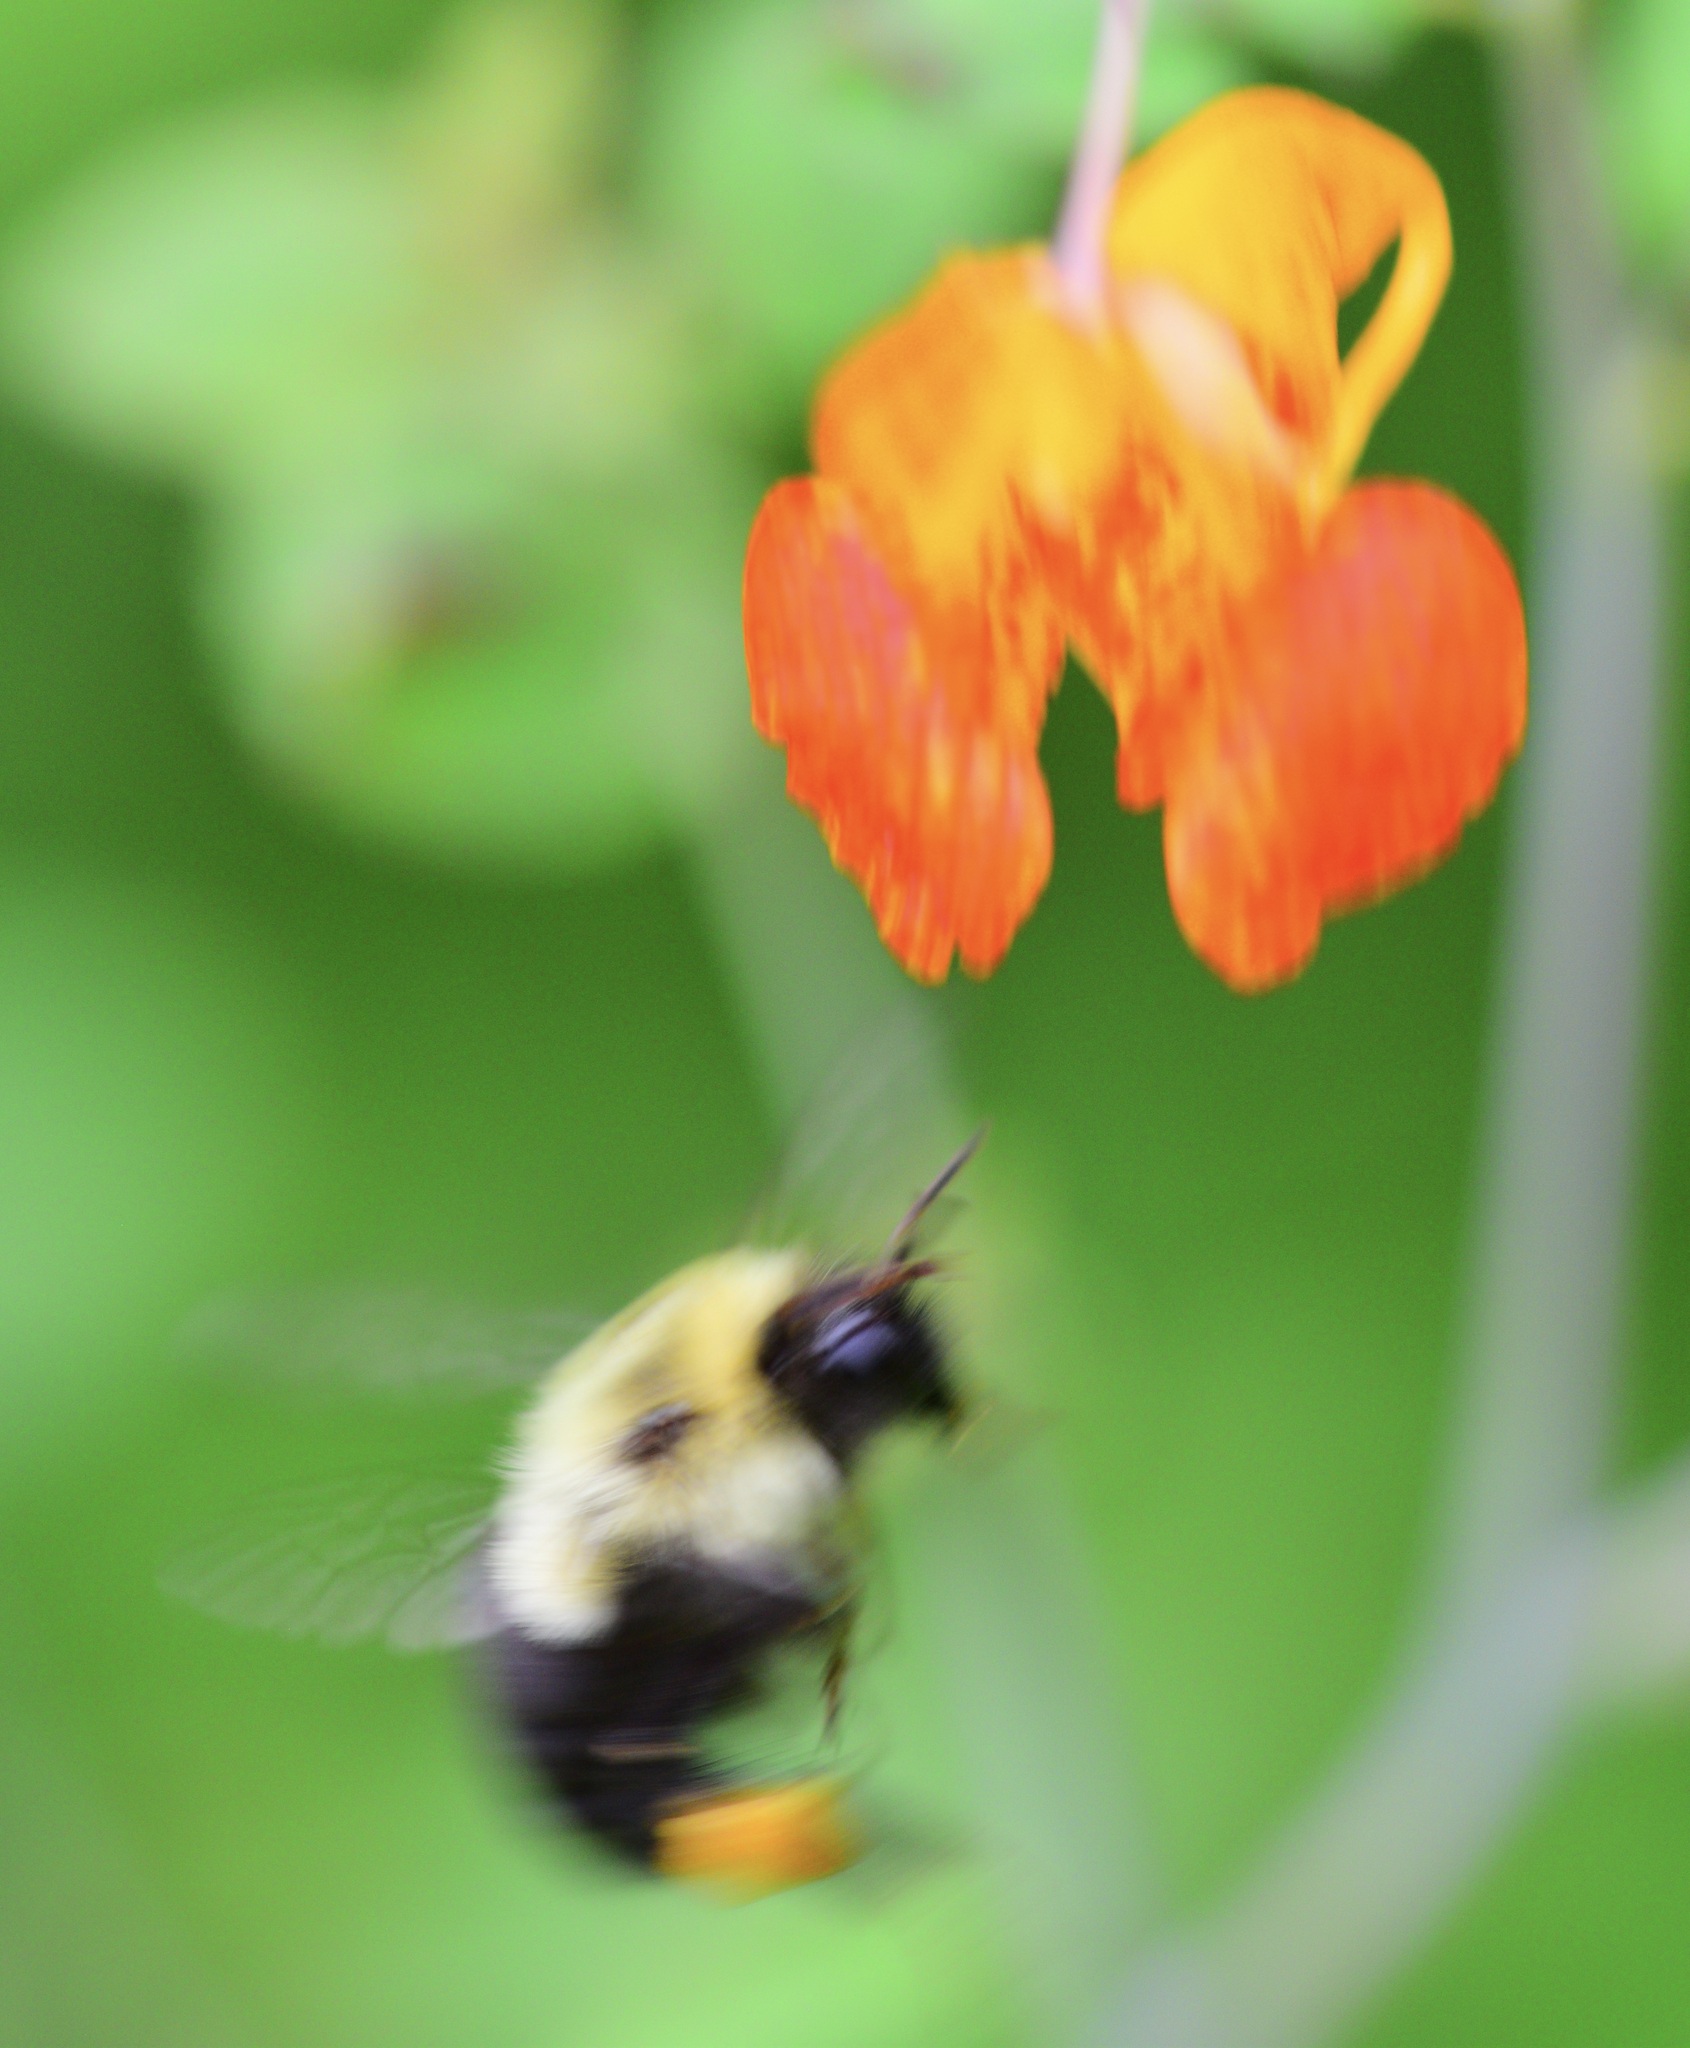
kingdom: Animalia
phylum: Arthropoda
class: Insecta
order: Hymenoptera
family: Apidae
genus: Bombus
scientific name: Bombus impatiens
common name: Common eastern bumble bee
